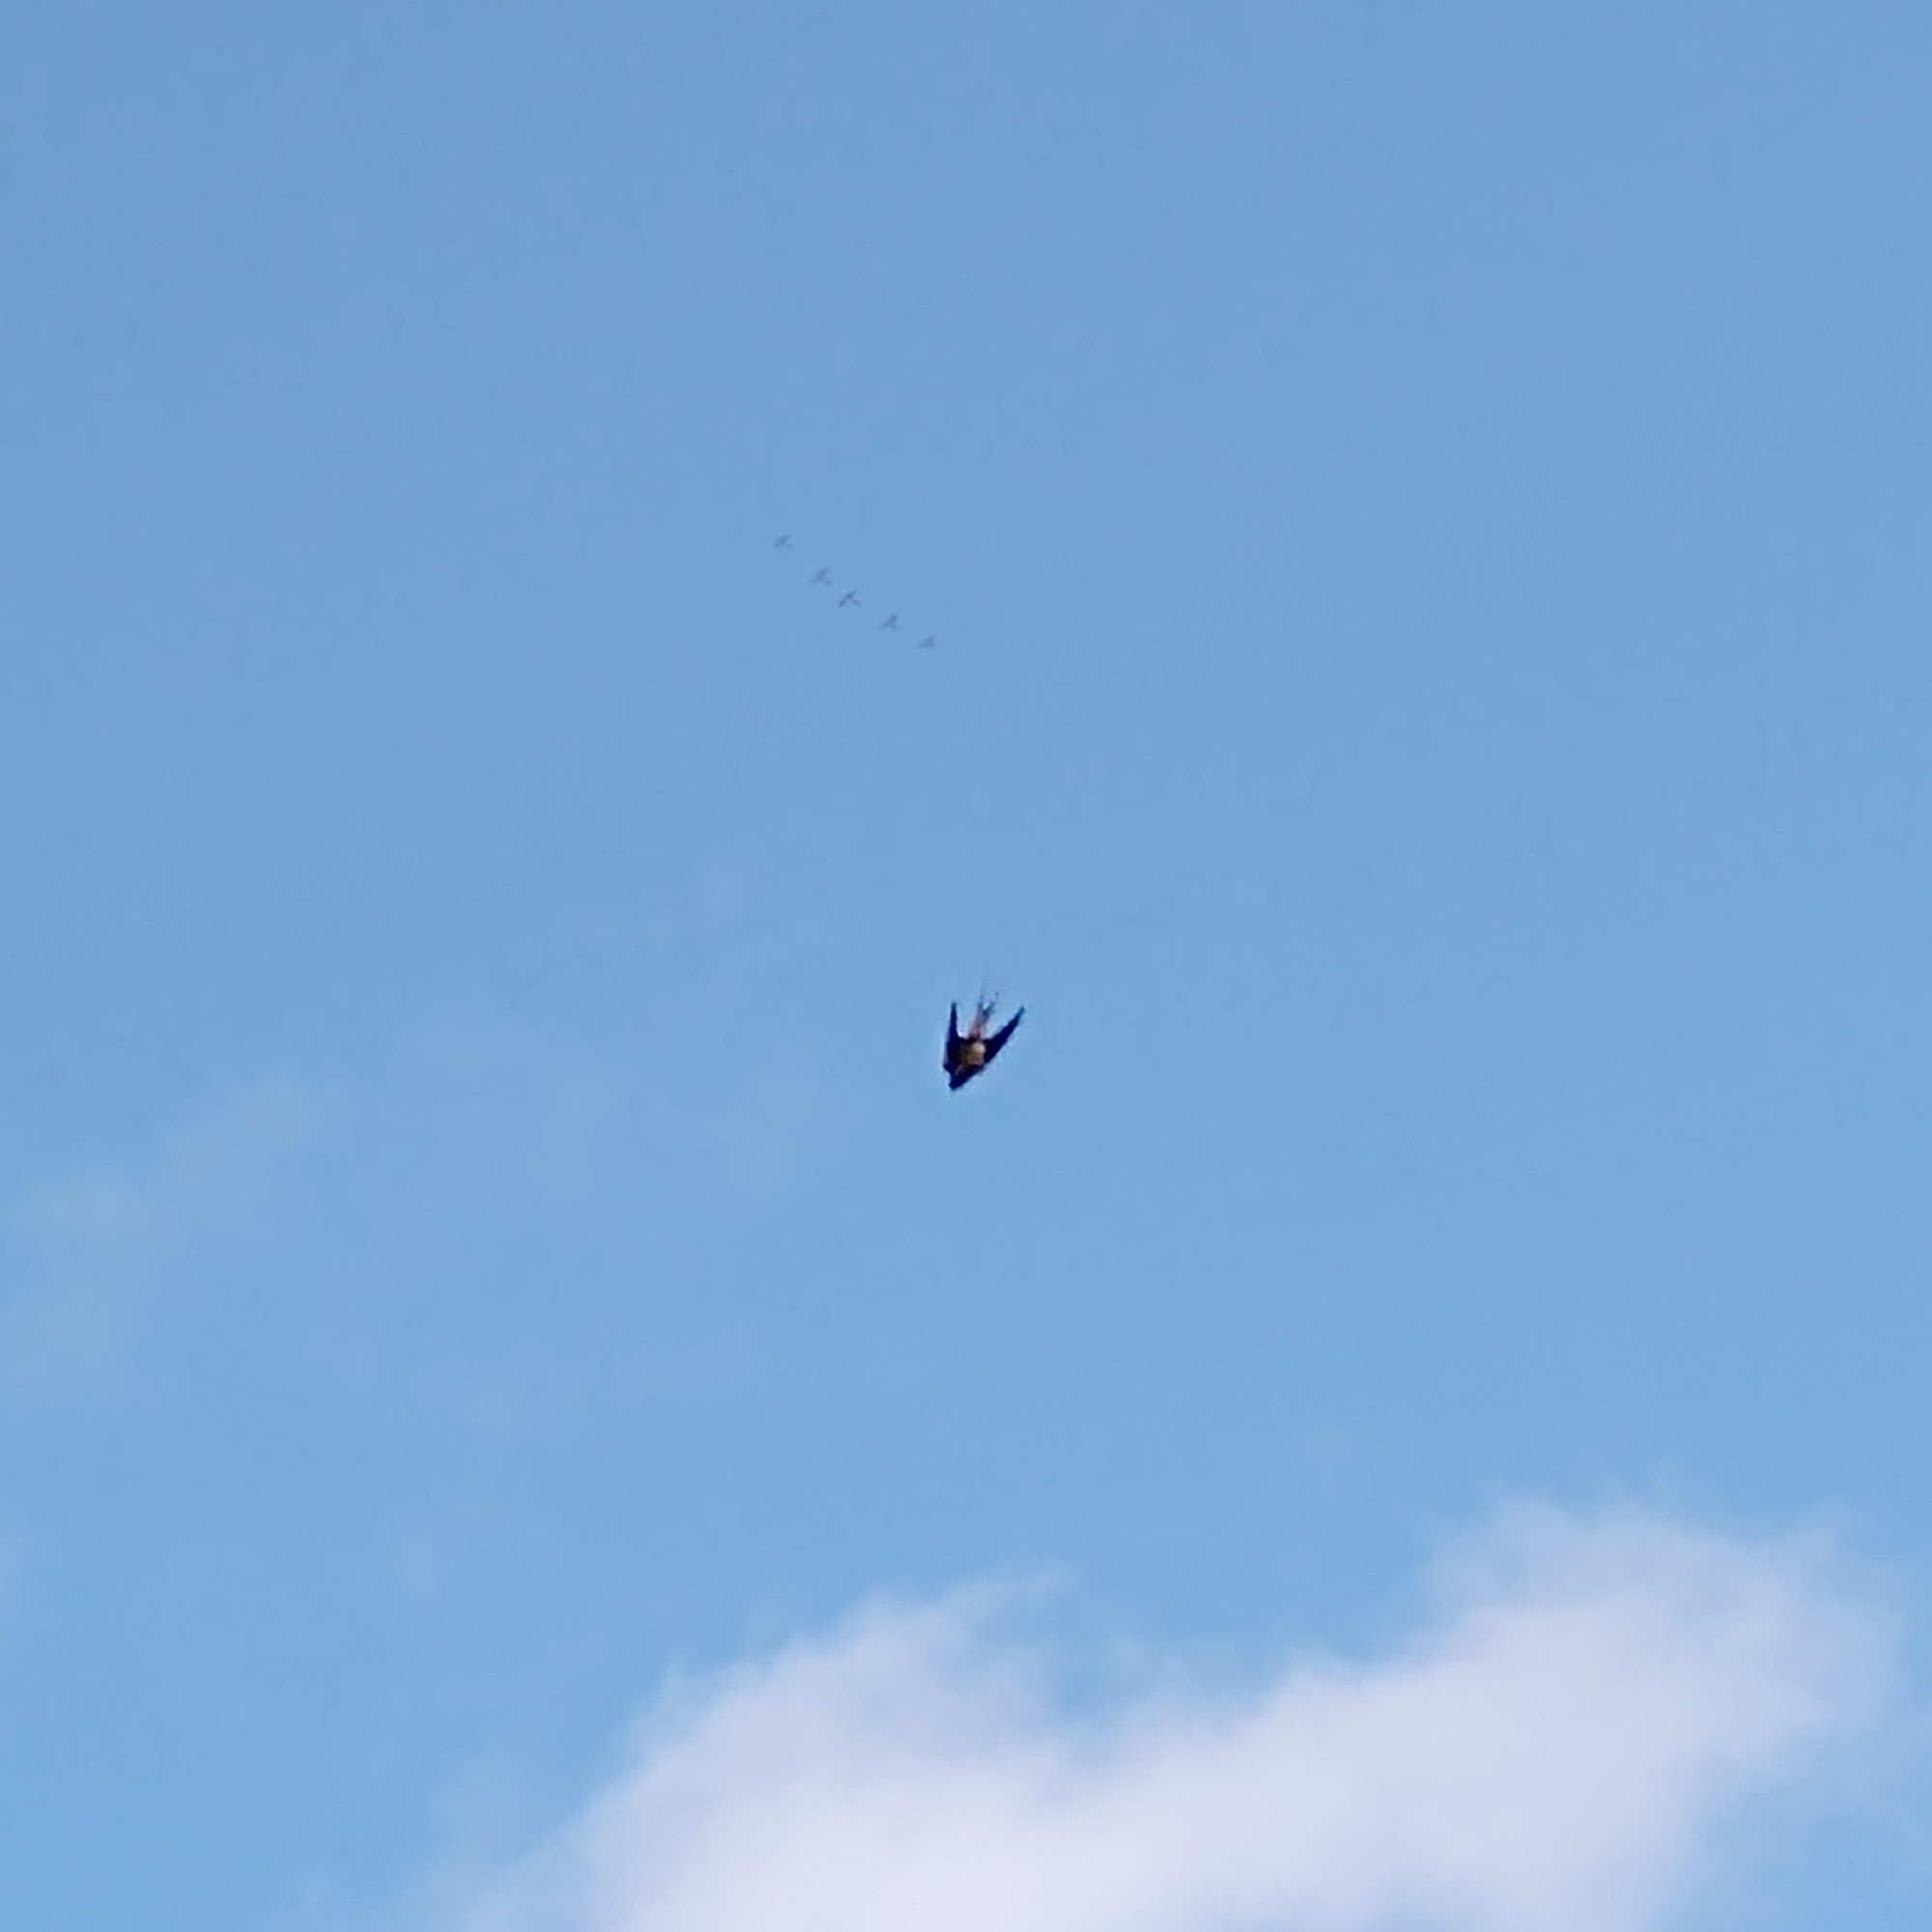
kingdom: Animalia
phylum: Chordata
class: Aves
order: Passeriformes
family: Hirundinidae
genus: Hirundo
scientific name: Hirundo rustica
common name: Barn swallow
